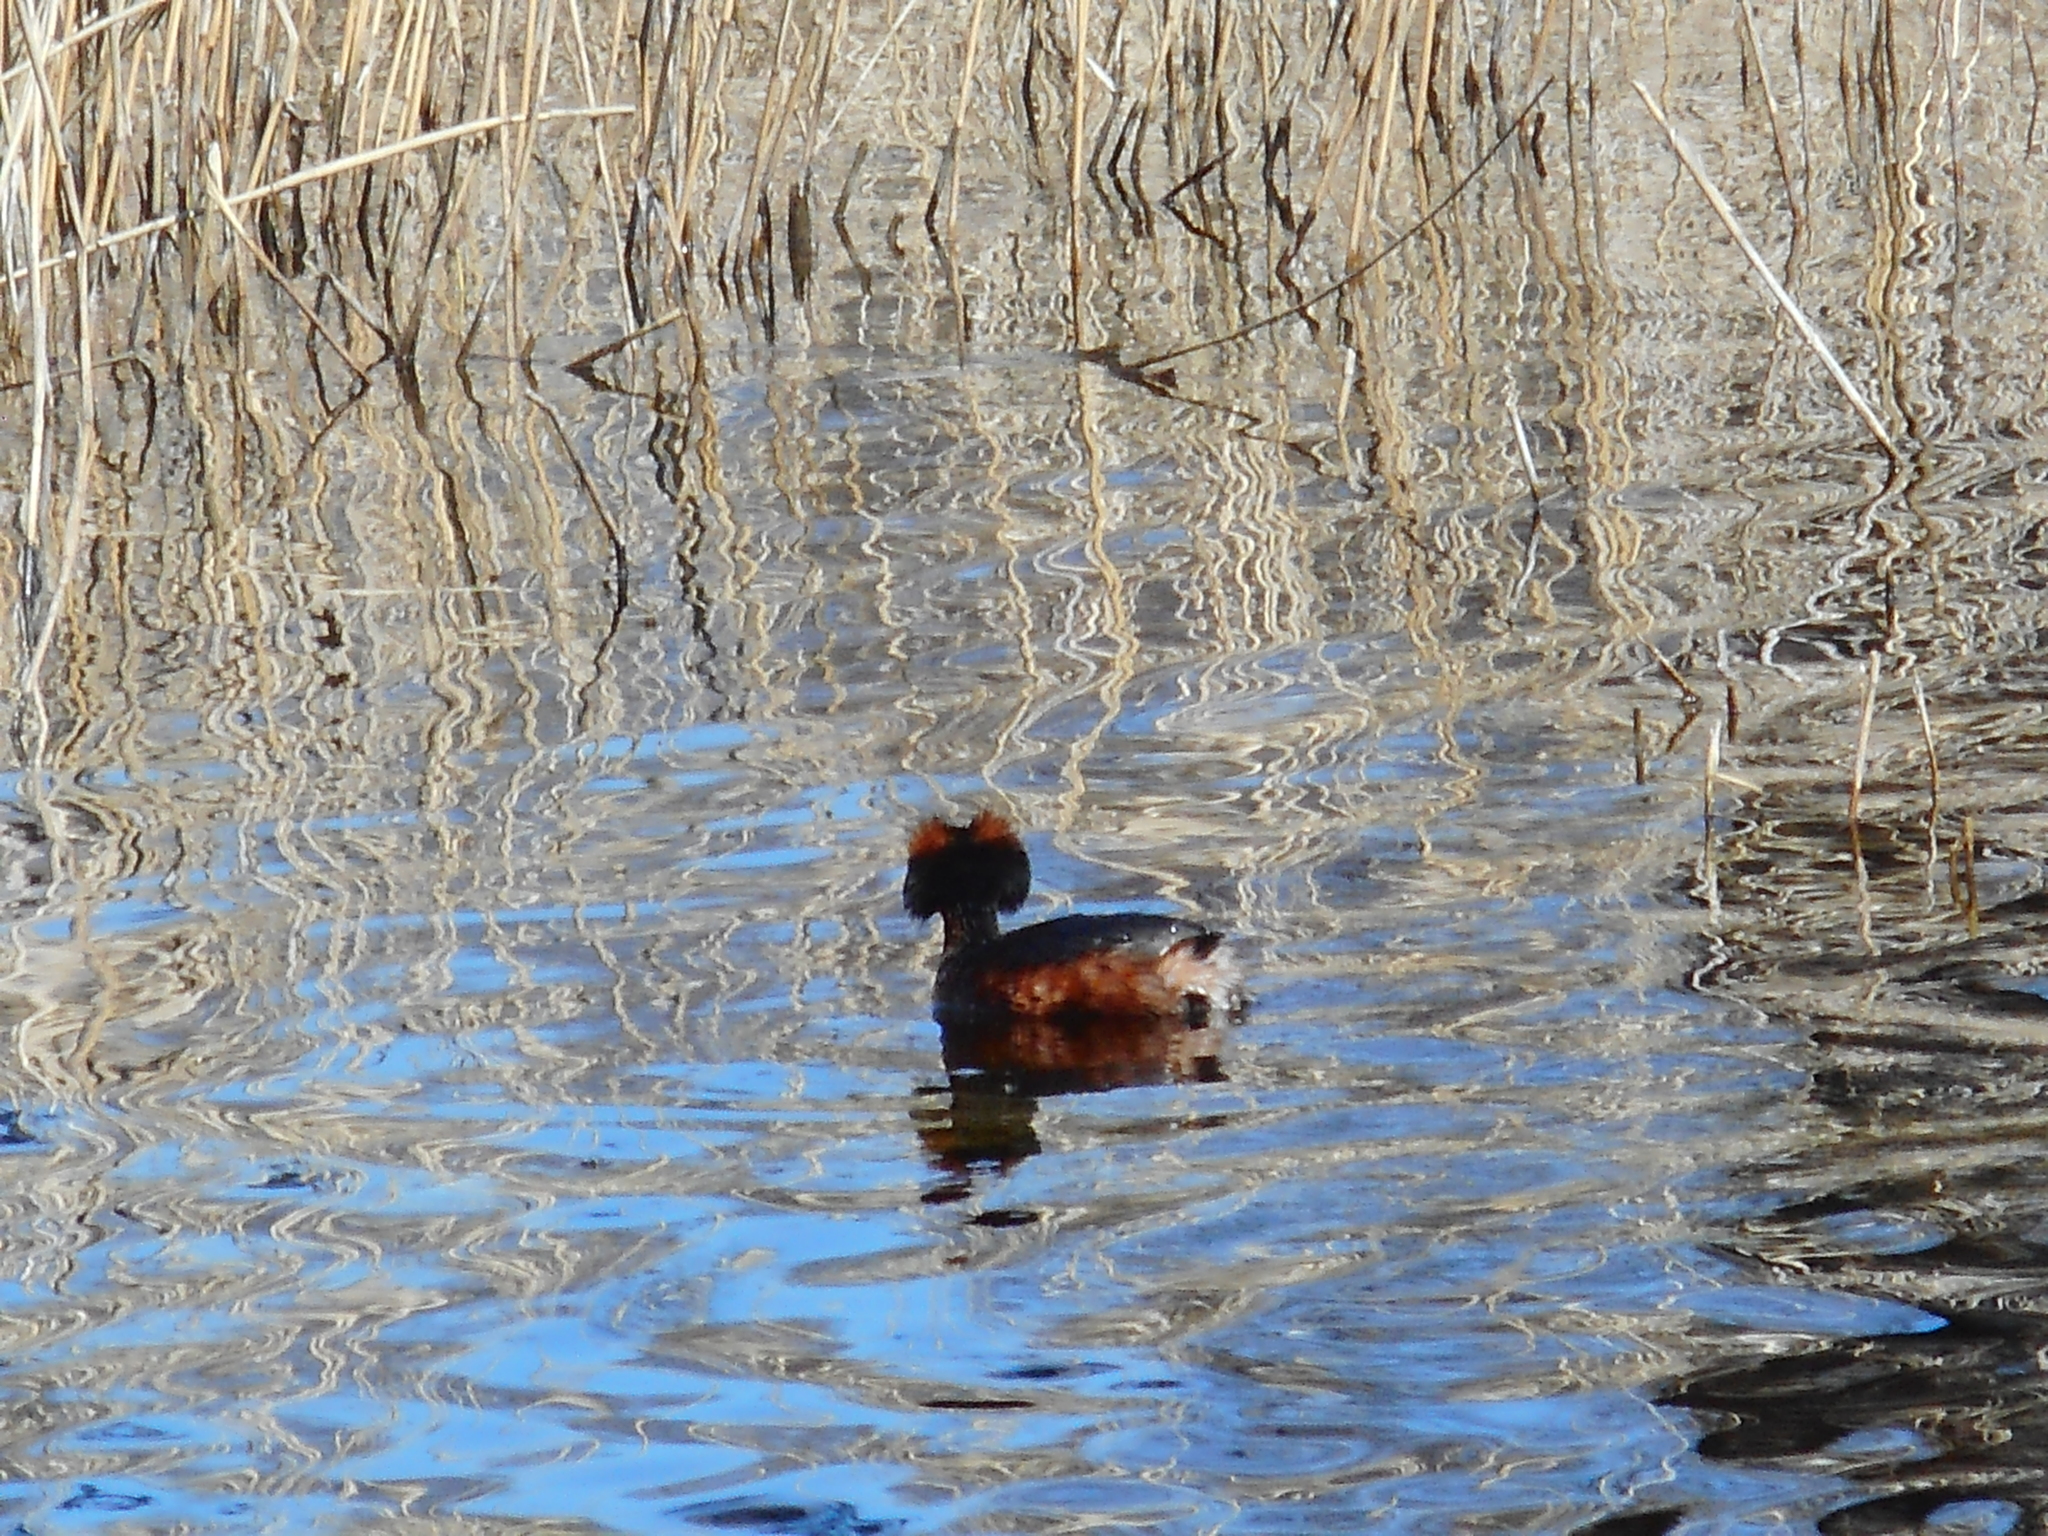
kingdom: Animalia
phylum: Chordata
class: Aves
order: Podicipediformes
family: Podicipedidae
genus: Podiceps
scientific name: Podiceps auritus
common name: Horned grebe
